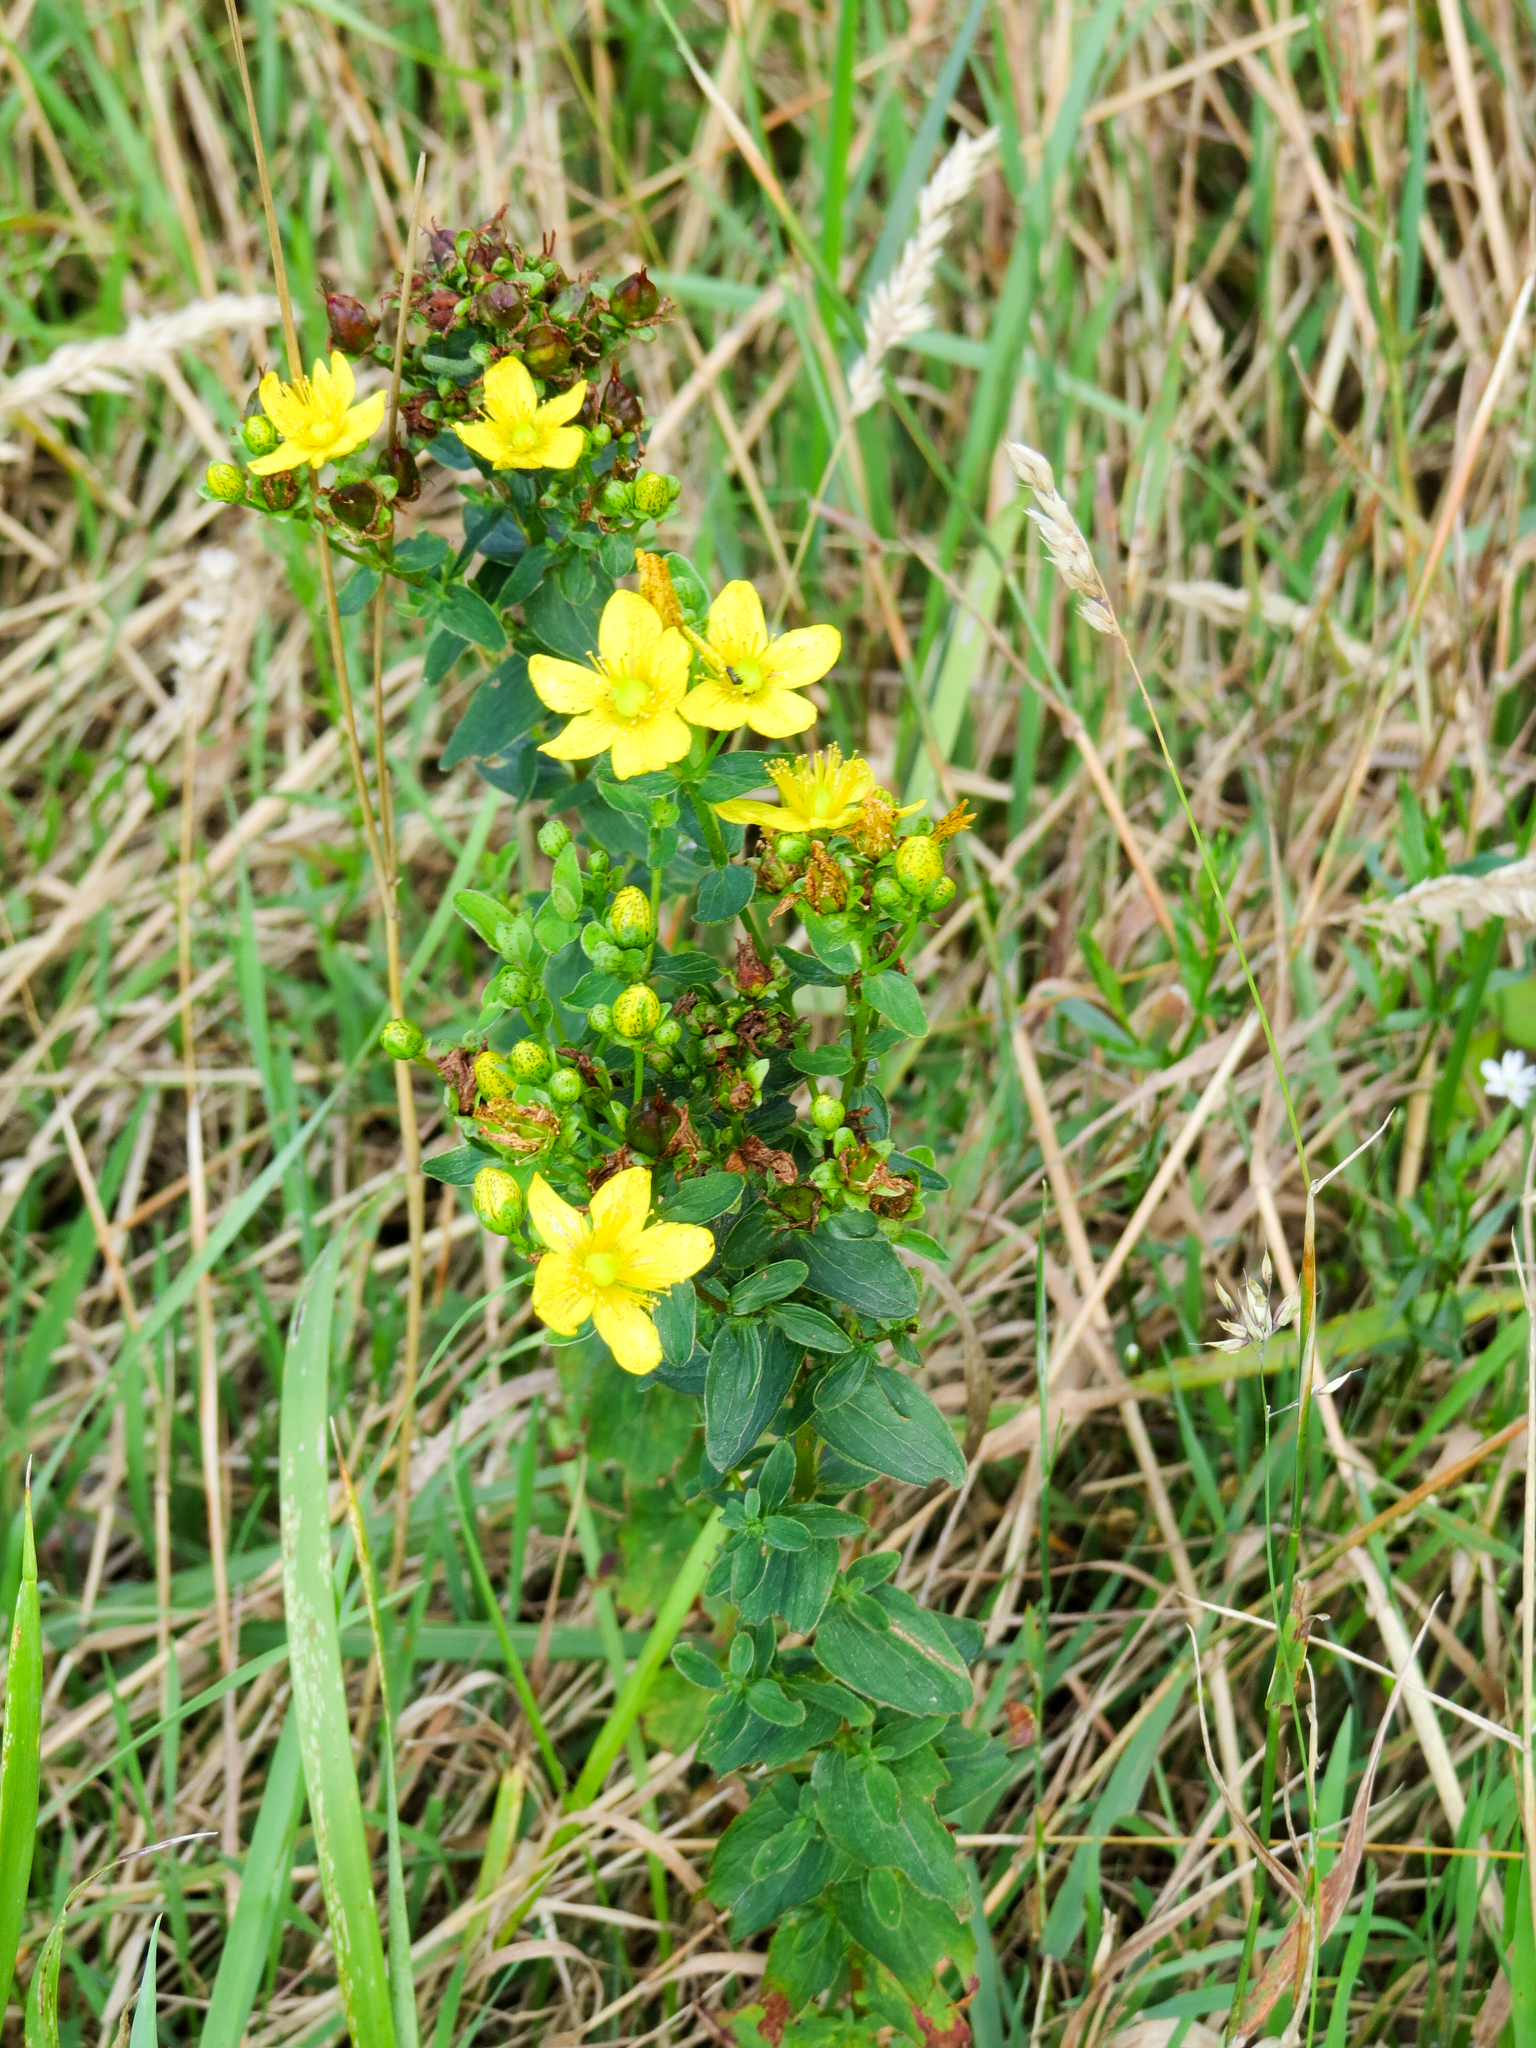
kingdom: Plantae
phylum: Tracheophyta
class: Magnoliopsida
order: Malpighiales
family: Hypericaceae
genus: Hypericum
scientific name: Hypericum maculatum
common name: Imperforate st. john's-wort
